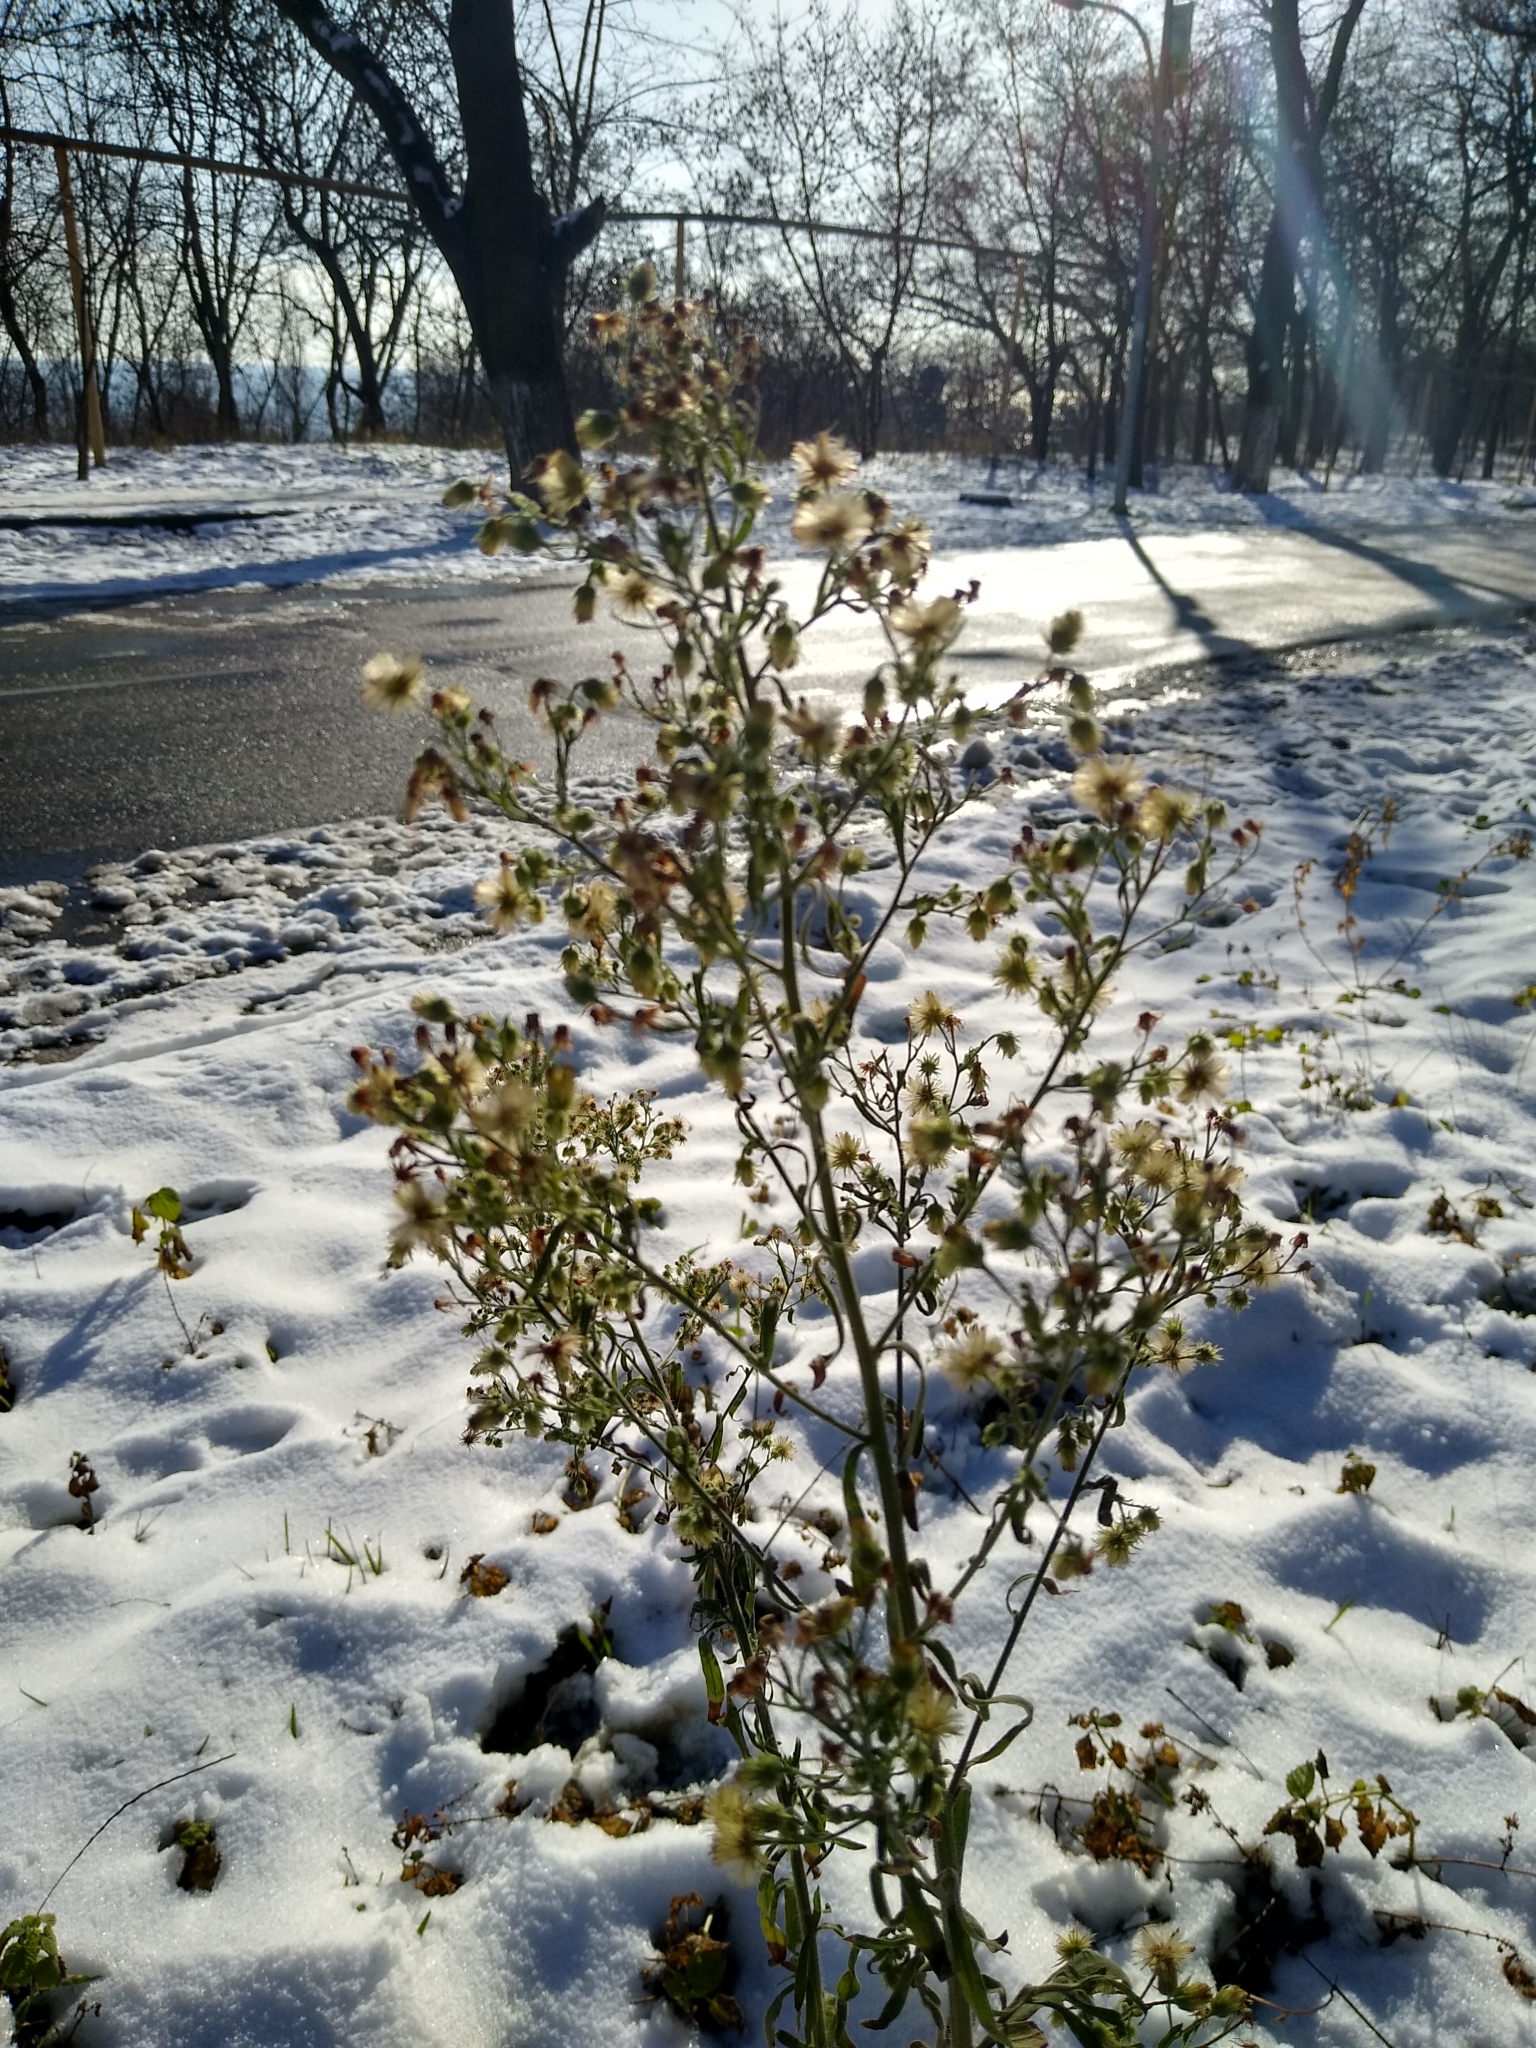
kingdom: Plantae
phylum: Tracheophyta
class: Magnoliopsida
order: Asterales
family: Asteraceae
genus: Erigeron
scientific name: Erigeron canadensis
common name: Canadian fleabane
